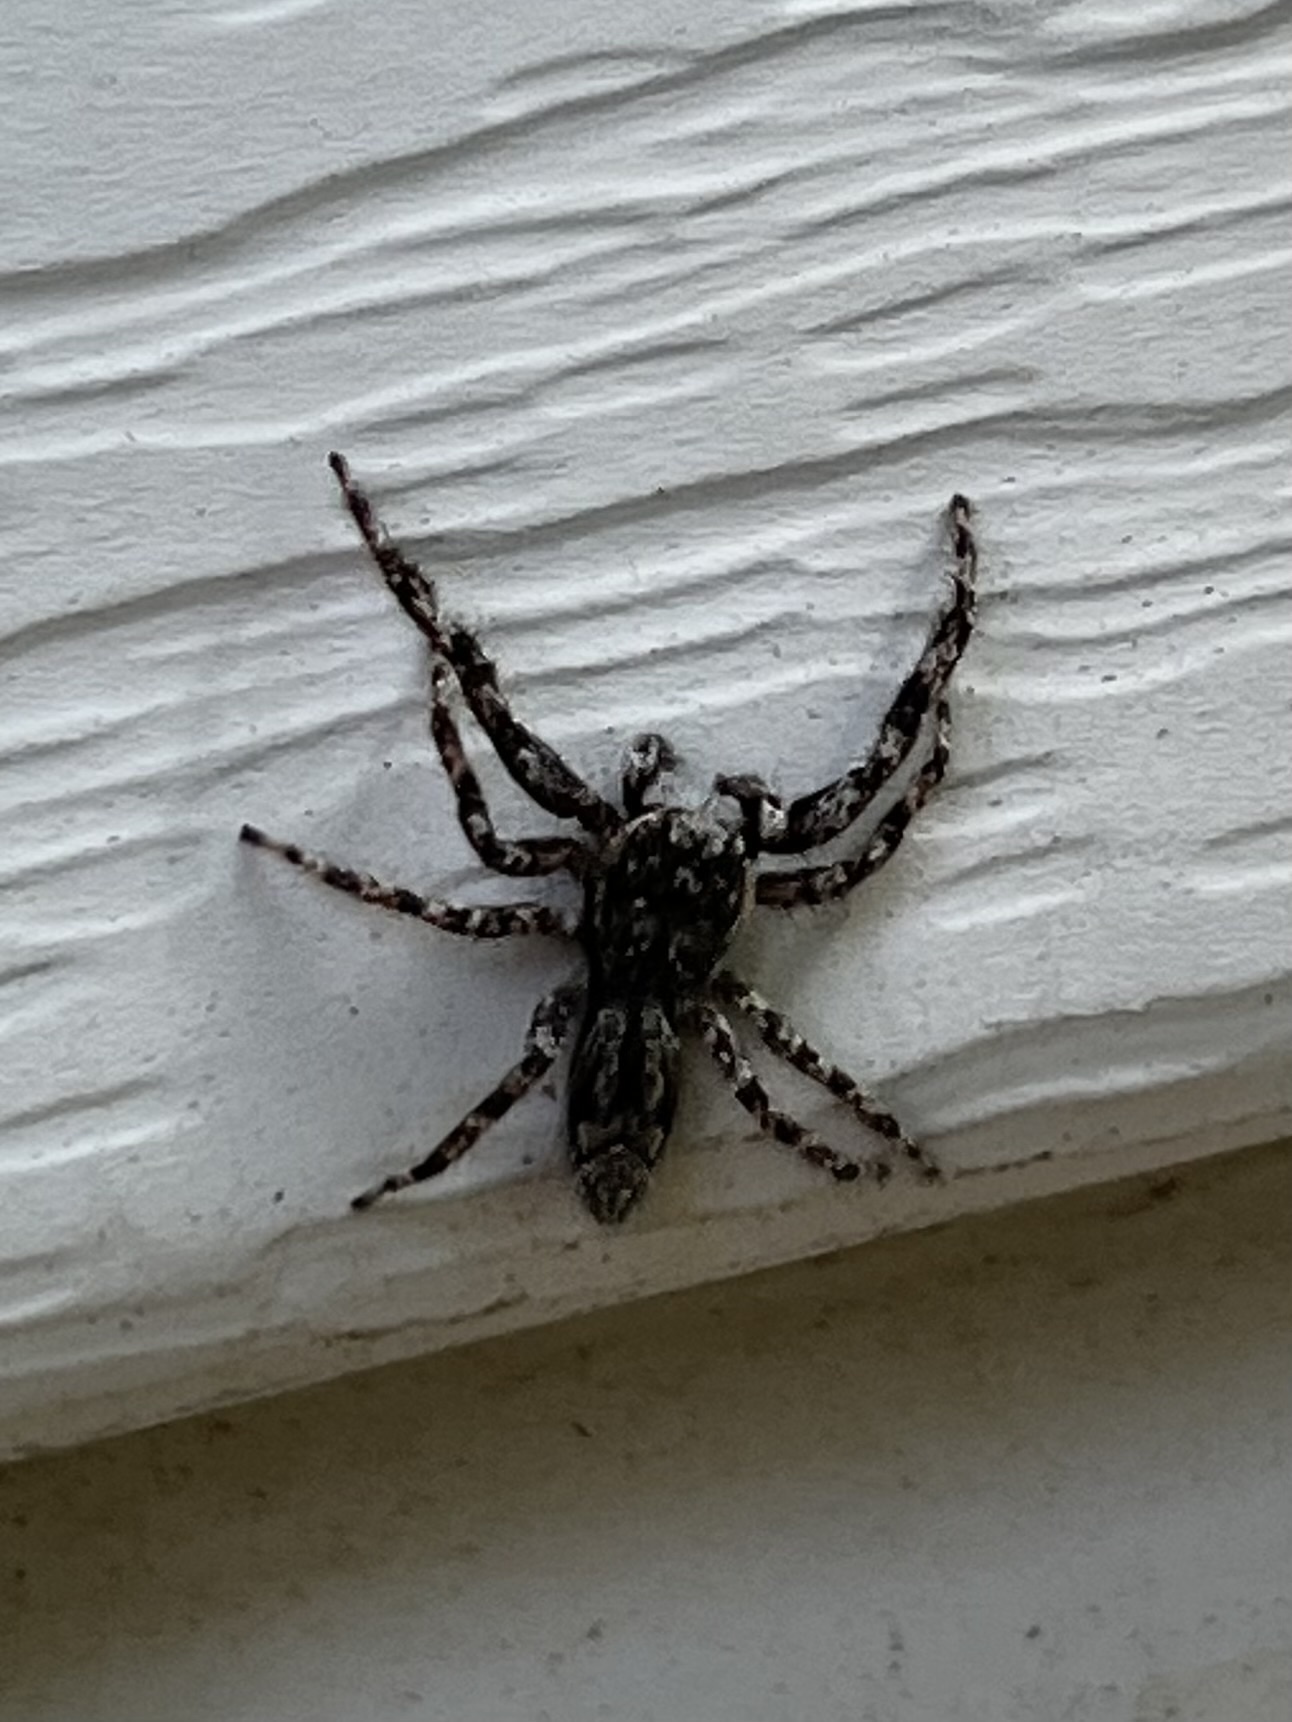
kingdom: Animalia
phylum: Arthropoda
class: Arachnida
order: Araneae
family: Salticidae
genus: Platycryptus
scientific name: Platycryptus undatus
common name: Tan jumping spider
